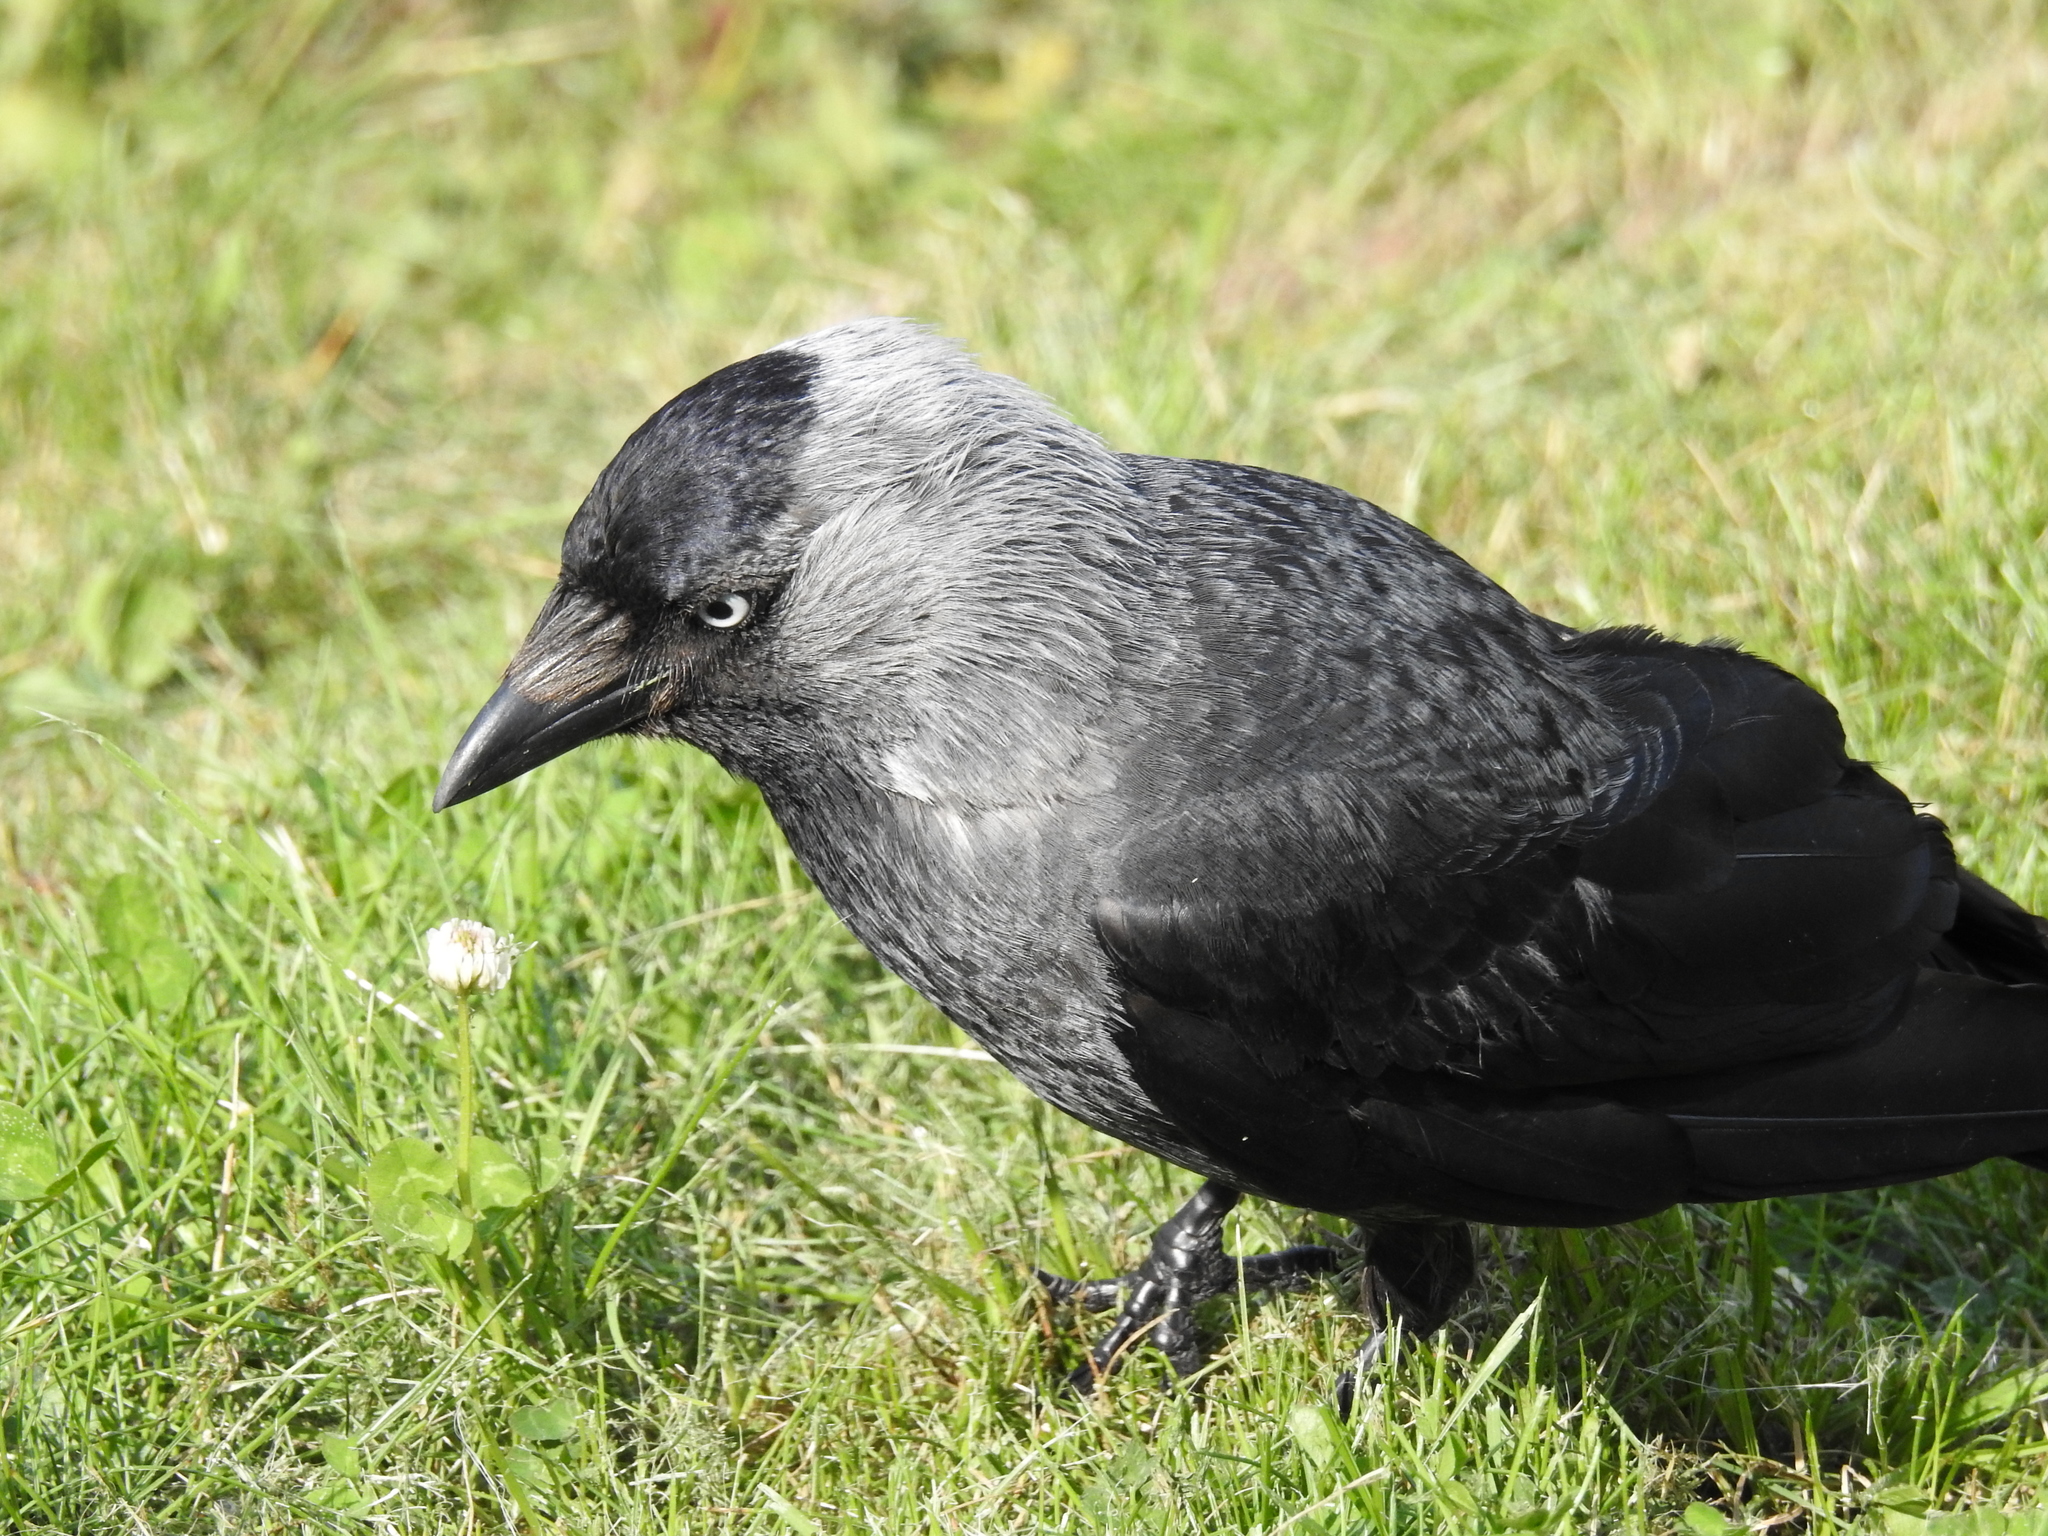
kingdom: Animalia
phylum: Chordata
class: Aves
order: Passeriformes
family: Corvidae
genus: Coloeus
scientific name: Coloeus monedula
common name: Western jackdaw
